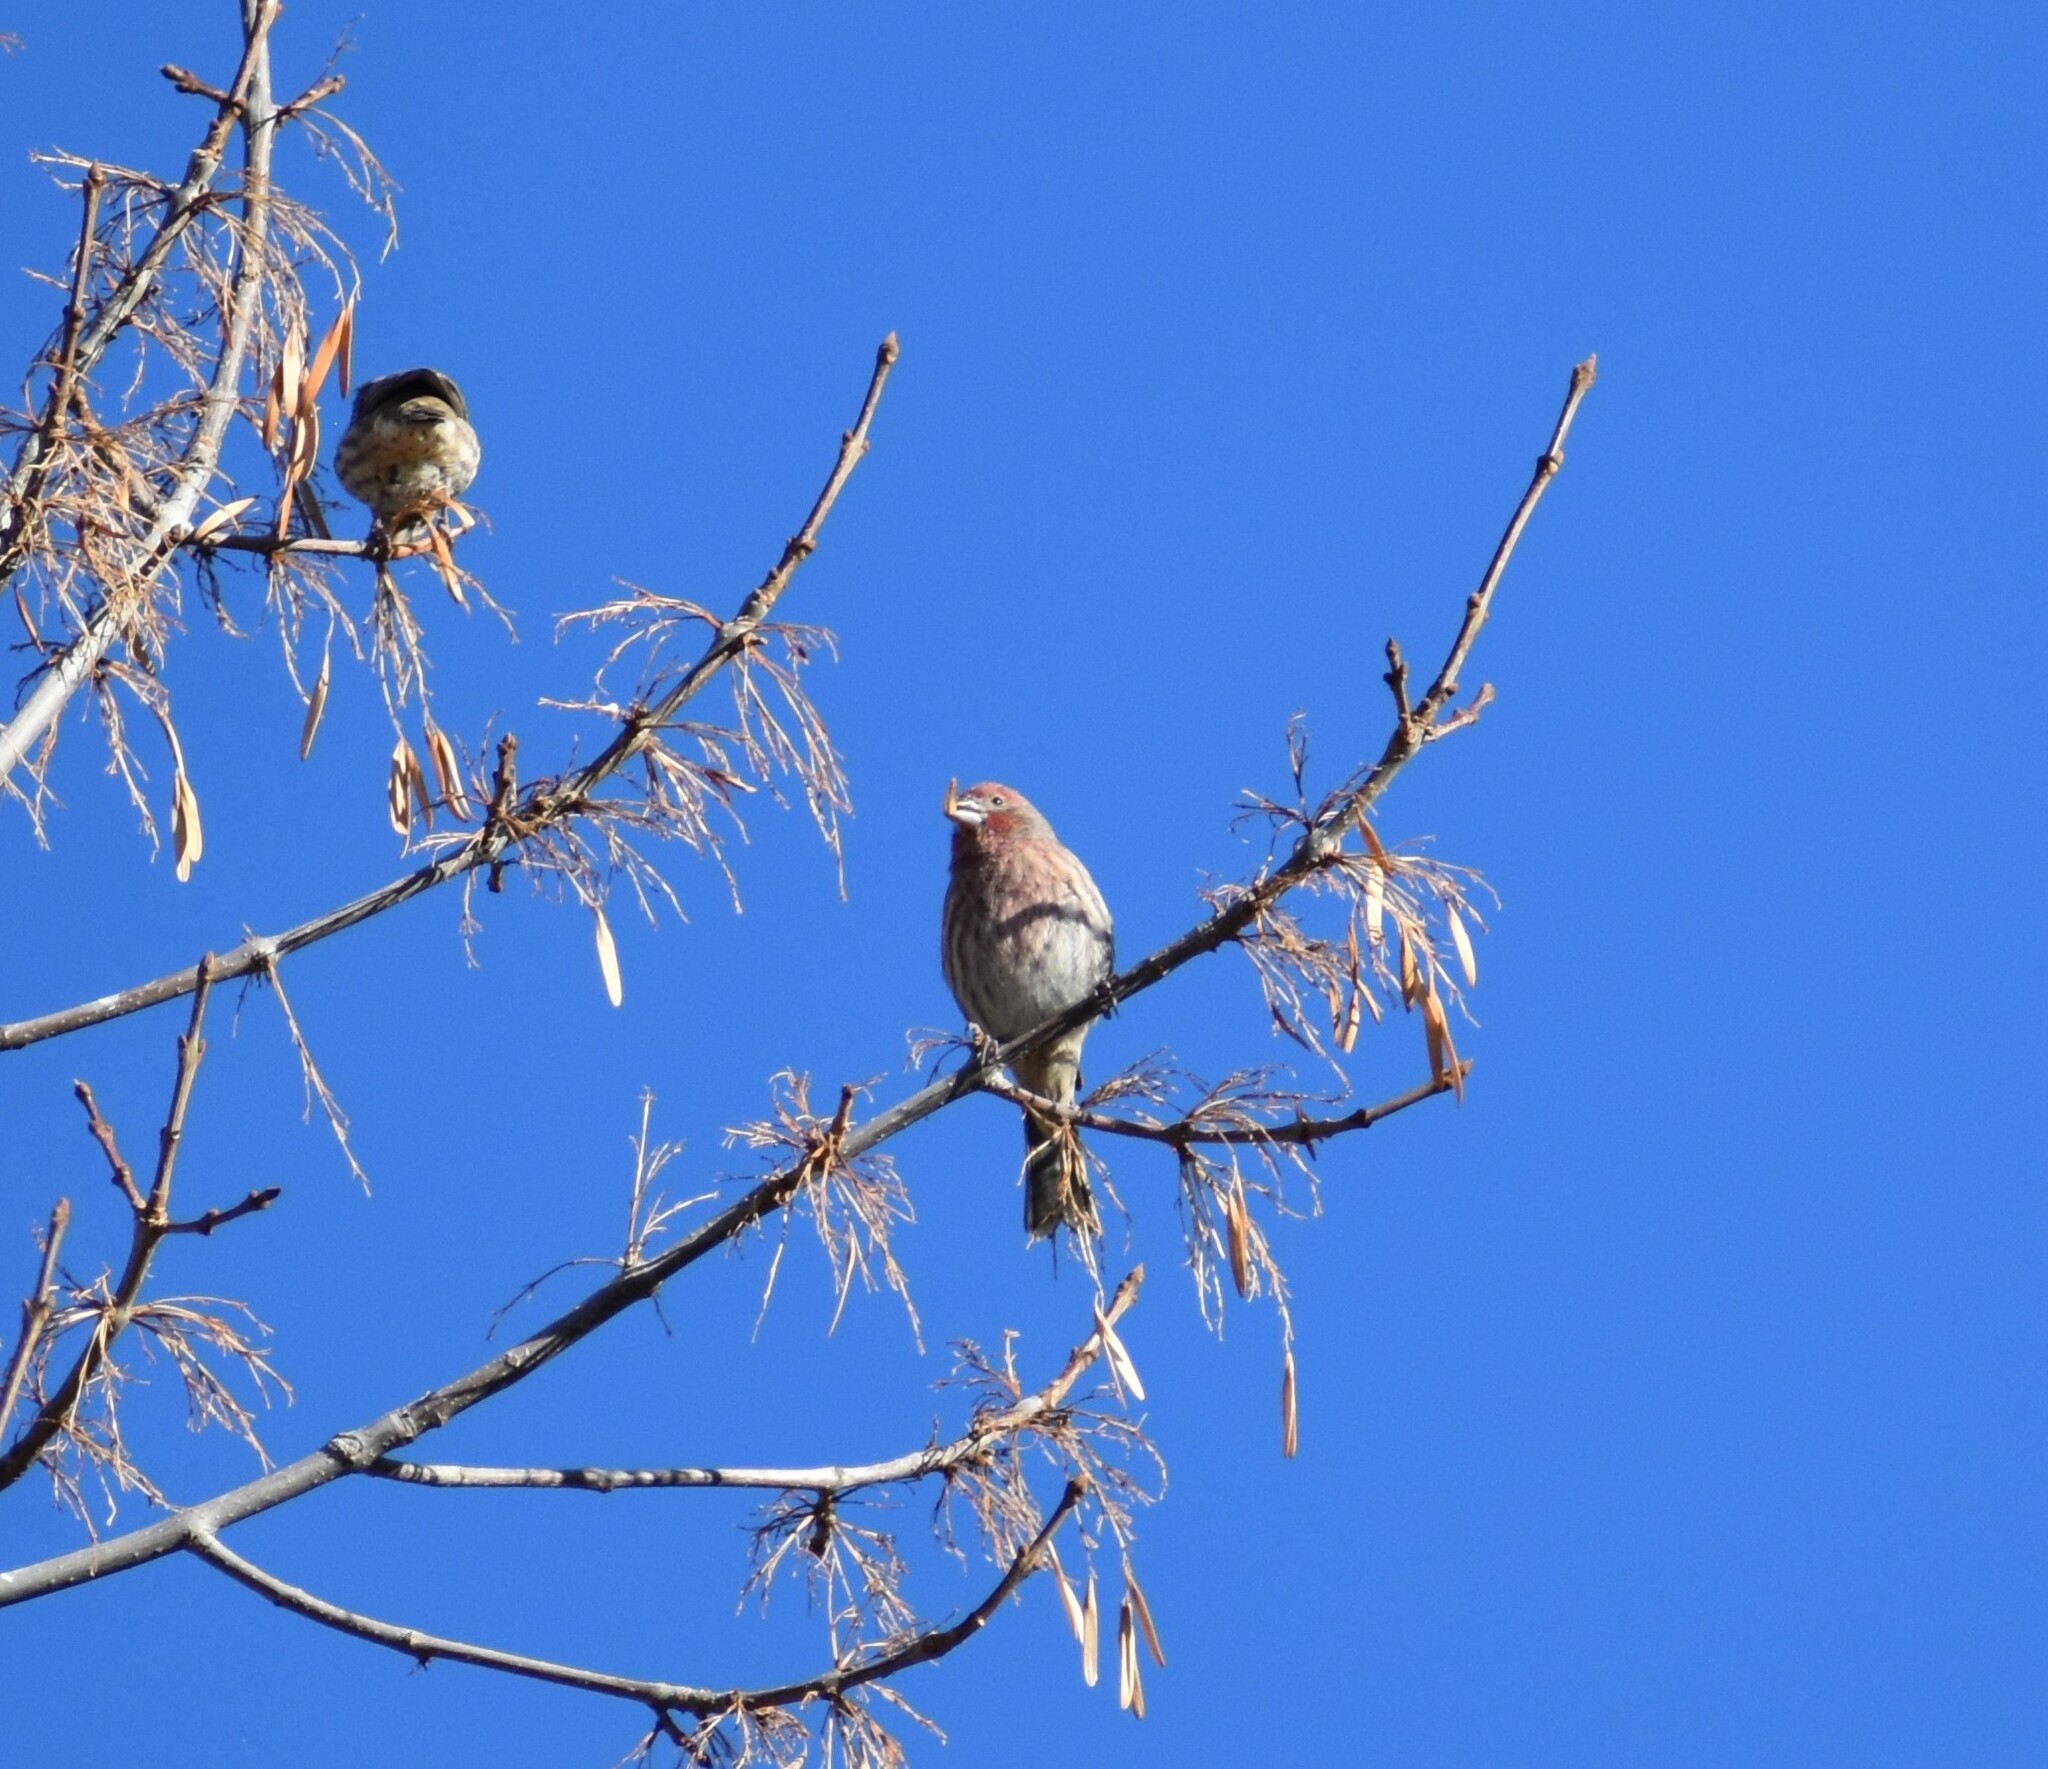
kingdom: Animalia
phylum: Chordata
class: Aves
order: Passeriformes
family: Fringillidae
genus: Haemorhous
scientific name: Haemorhous mexicanus
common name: House finch
